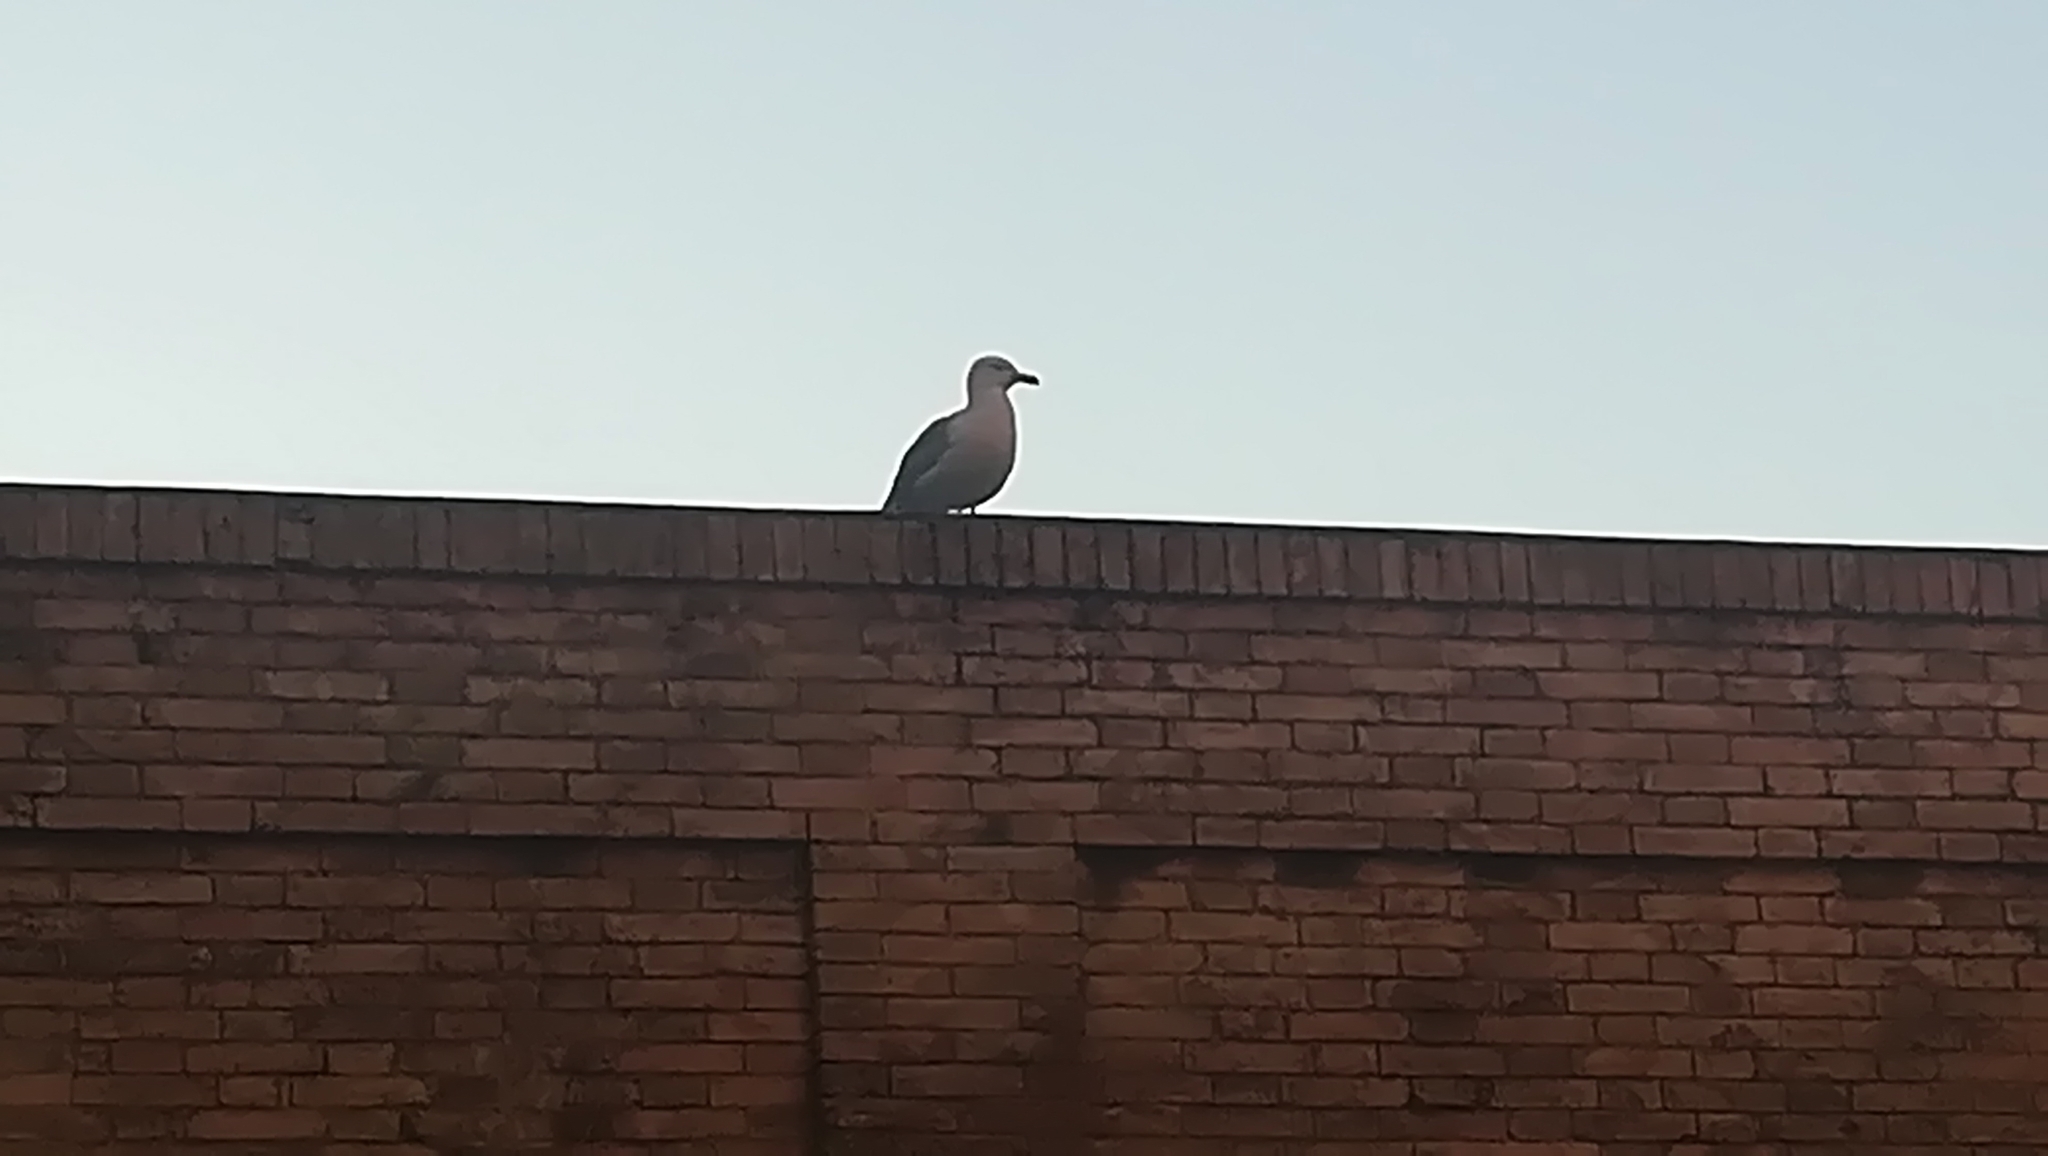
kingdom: Animalia
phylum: Chordata
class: Aves
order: Charadriiformes
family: Laridae
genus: Larus
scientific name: Larus michahellis
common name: Yellow-legged gull
